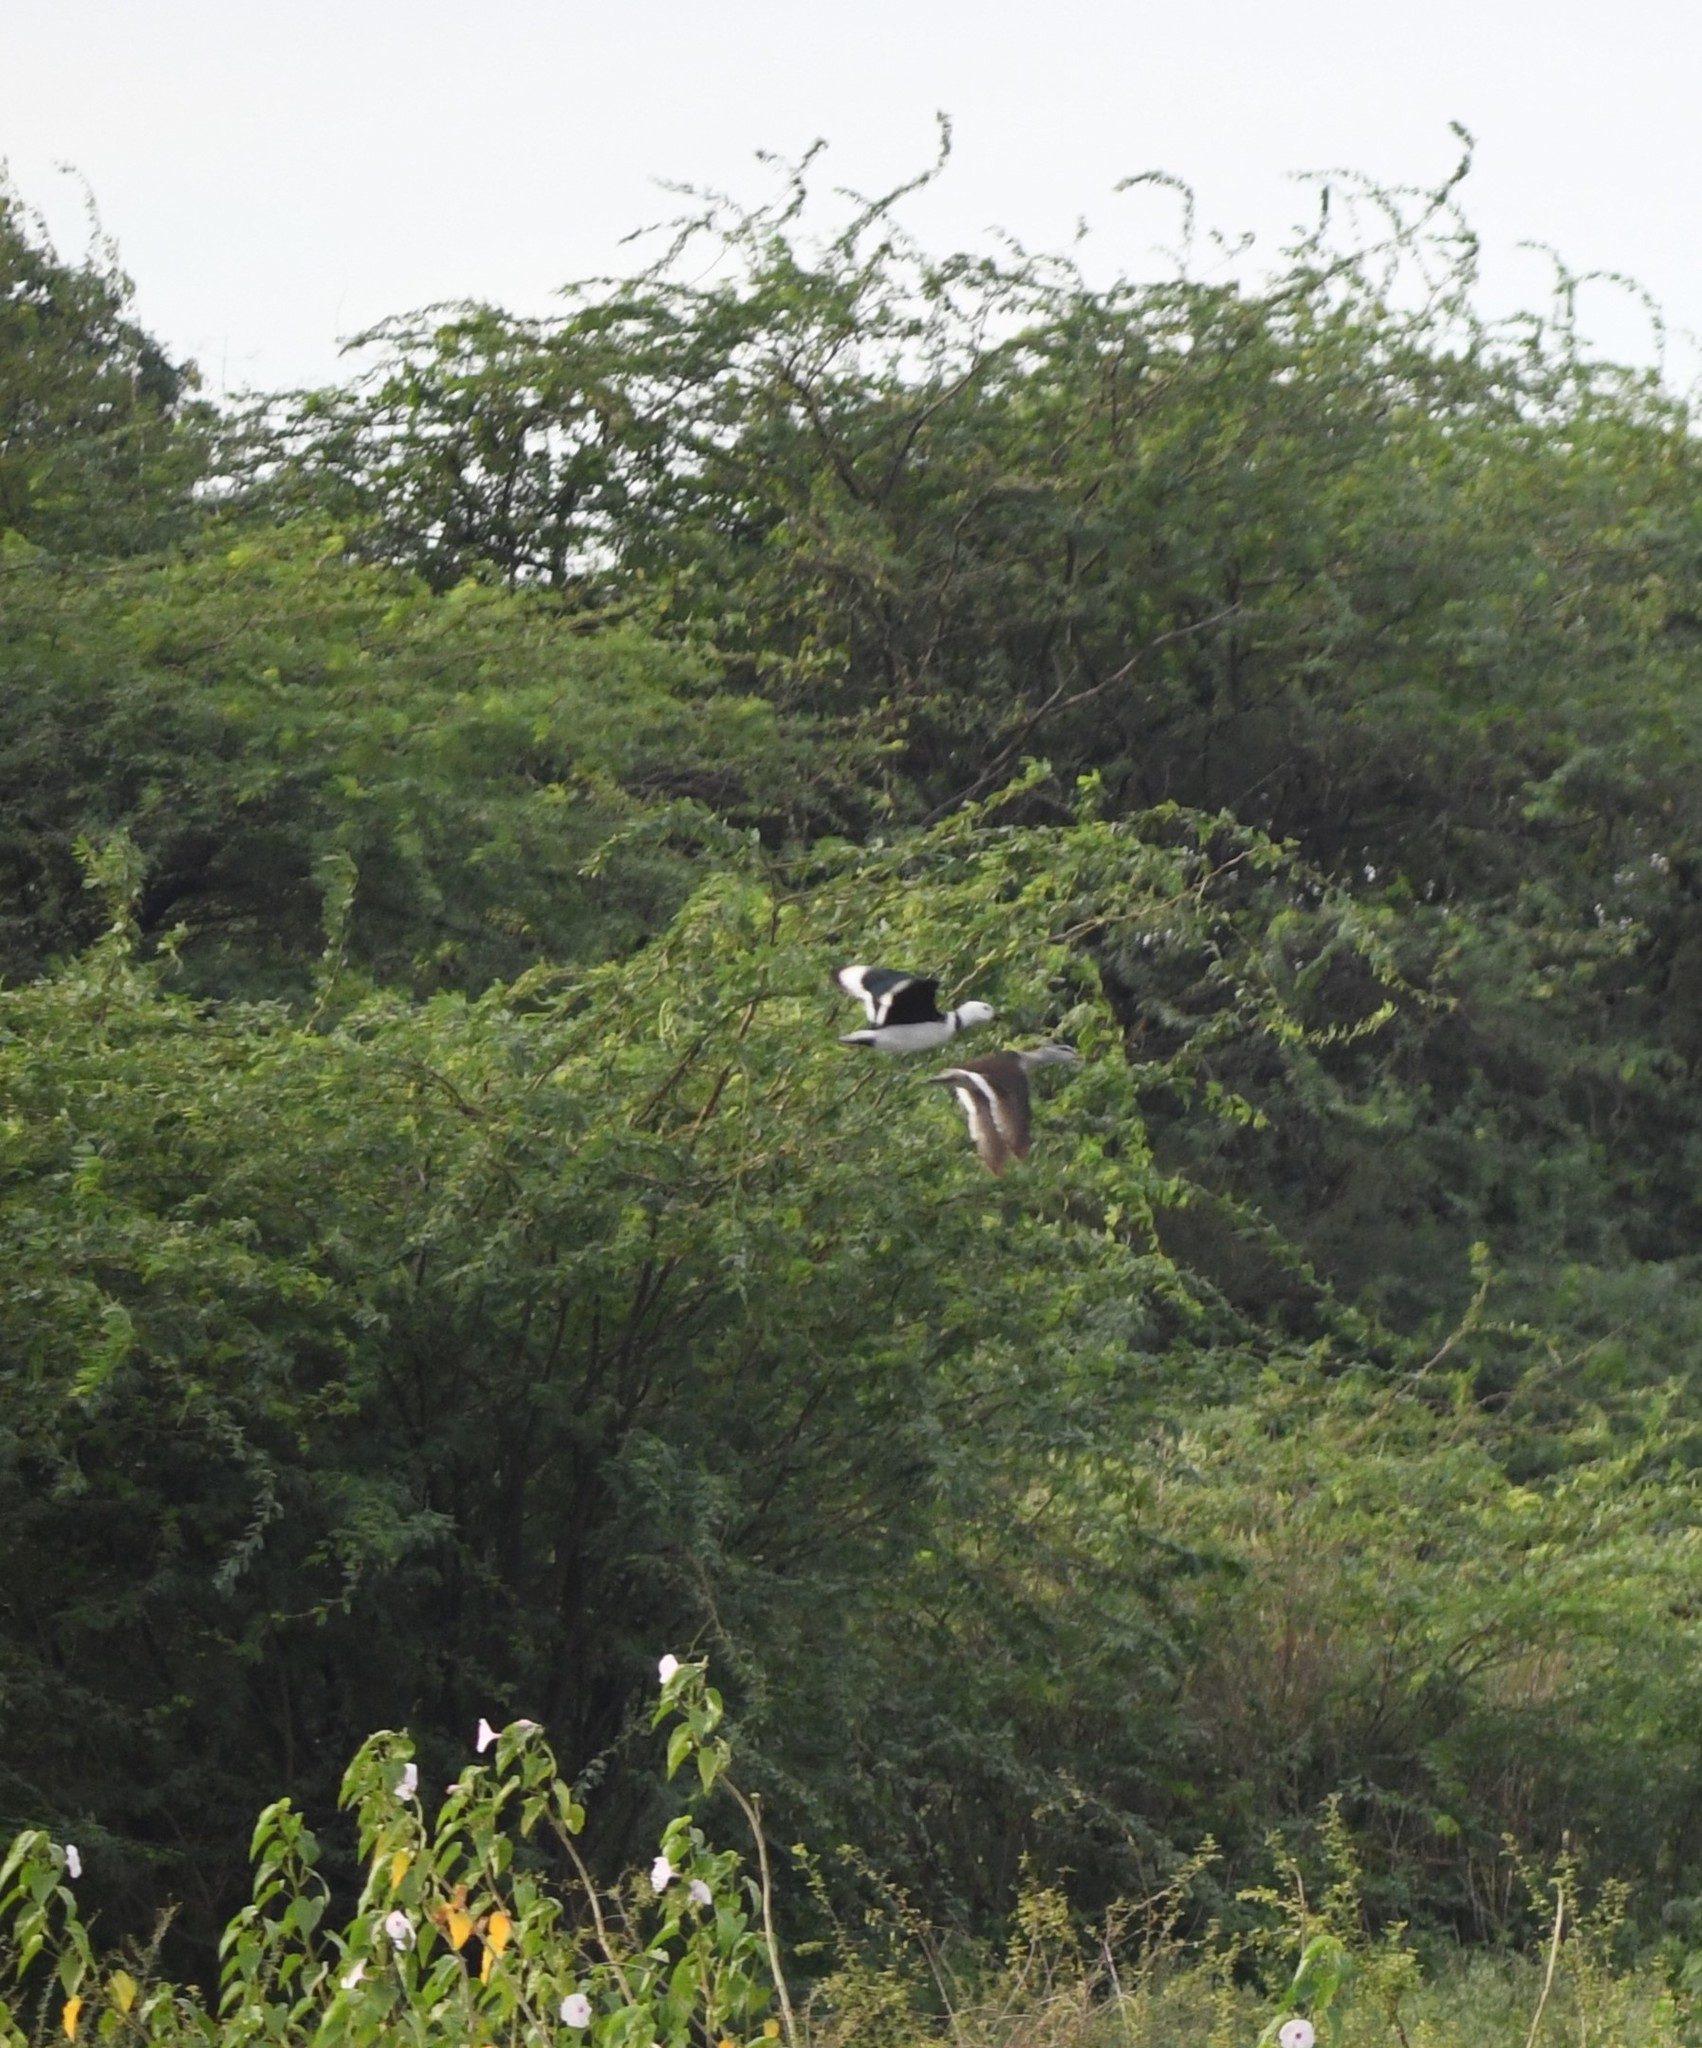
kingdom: Animalia
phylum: Chordata
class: Aves
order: Anseriformes
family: Anatidae
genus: Nettapus
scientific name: Nettapus coromandelianus
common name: Cotton pygmy-goose
